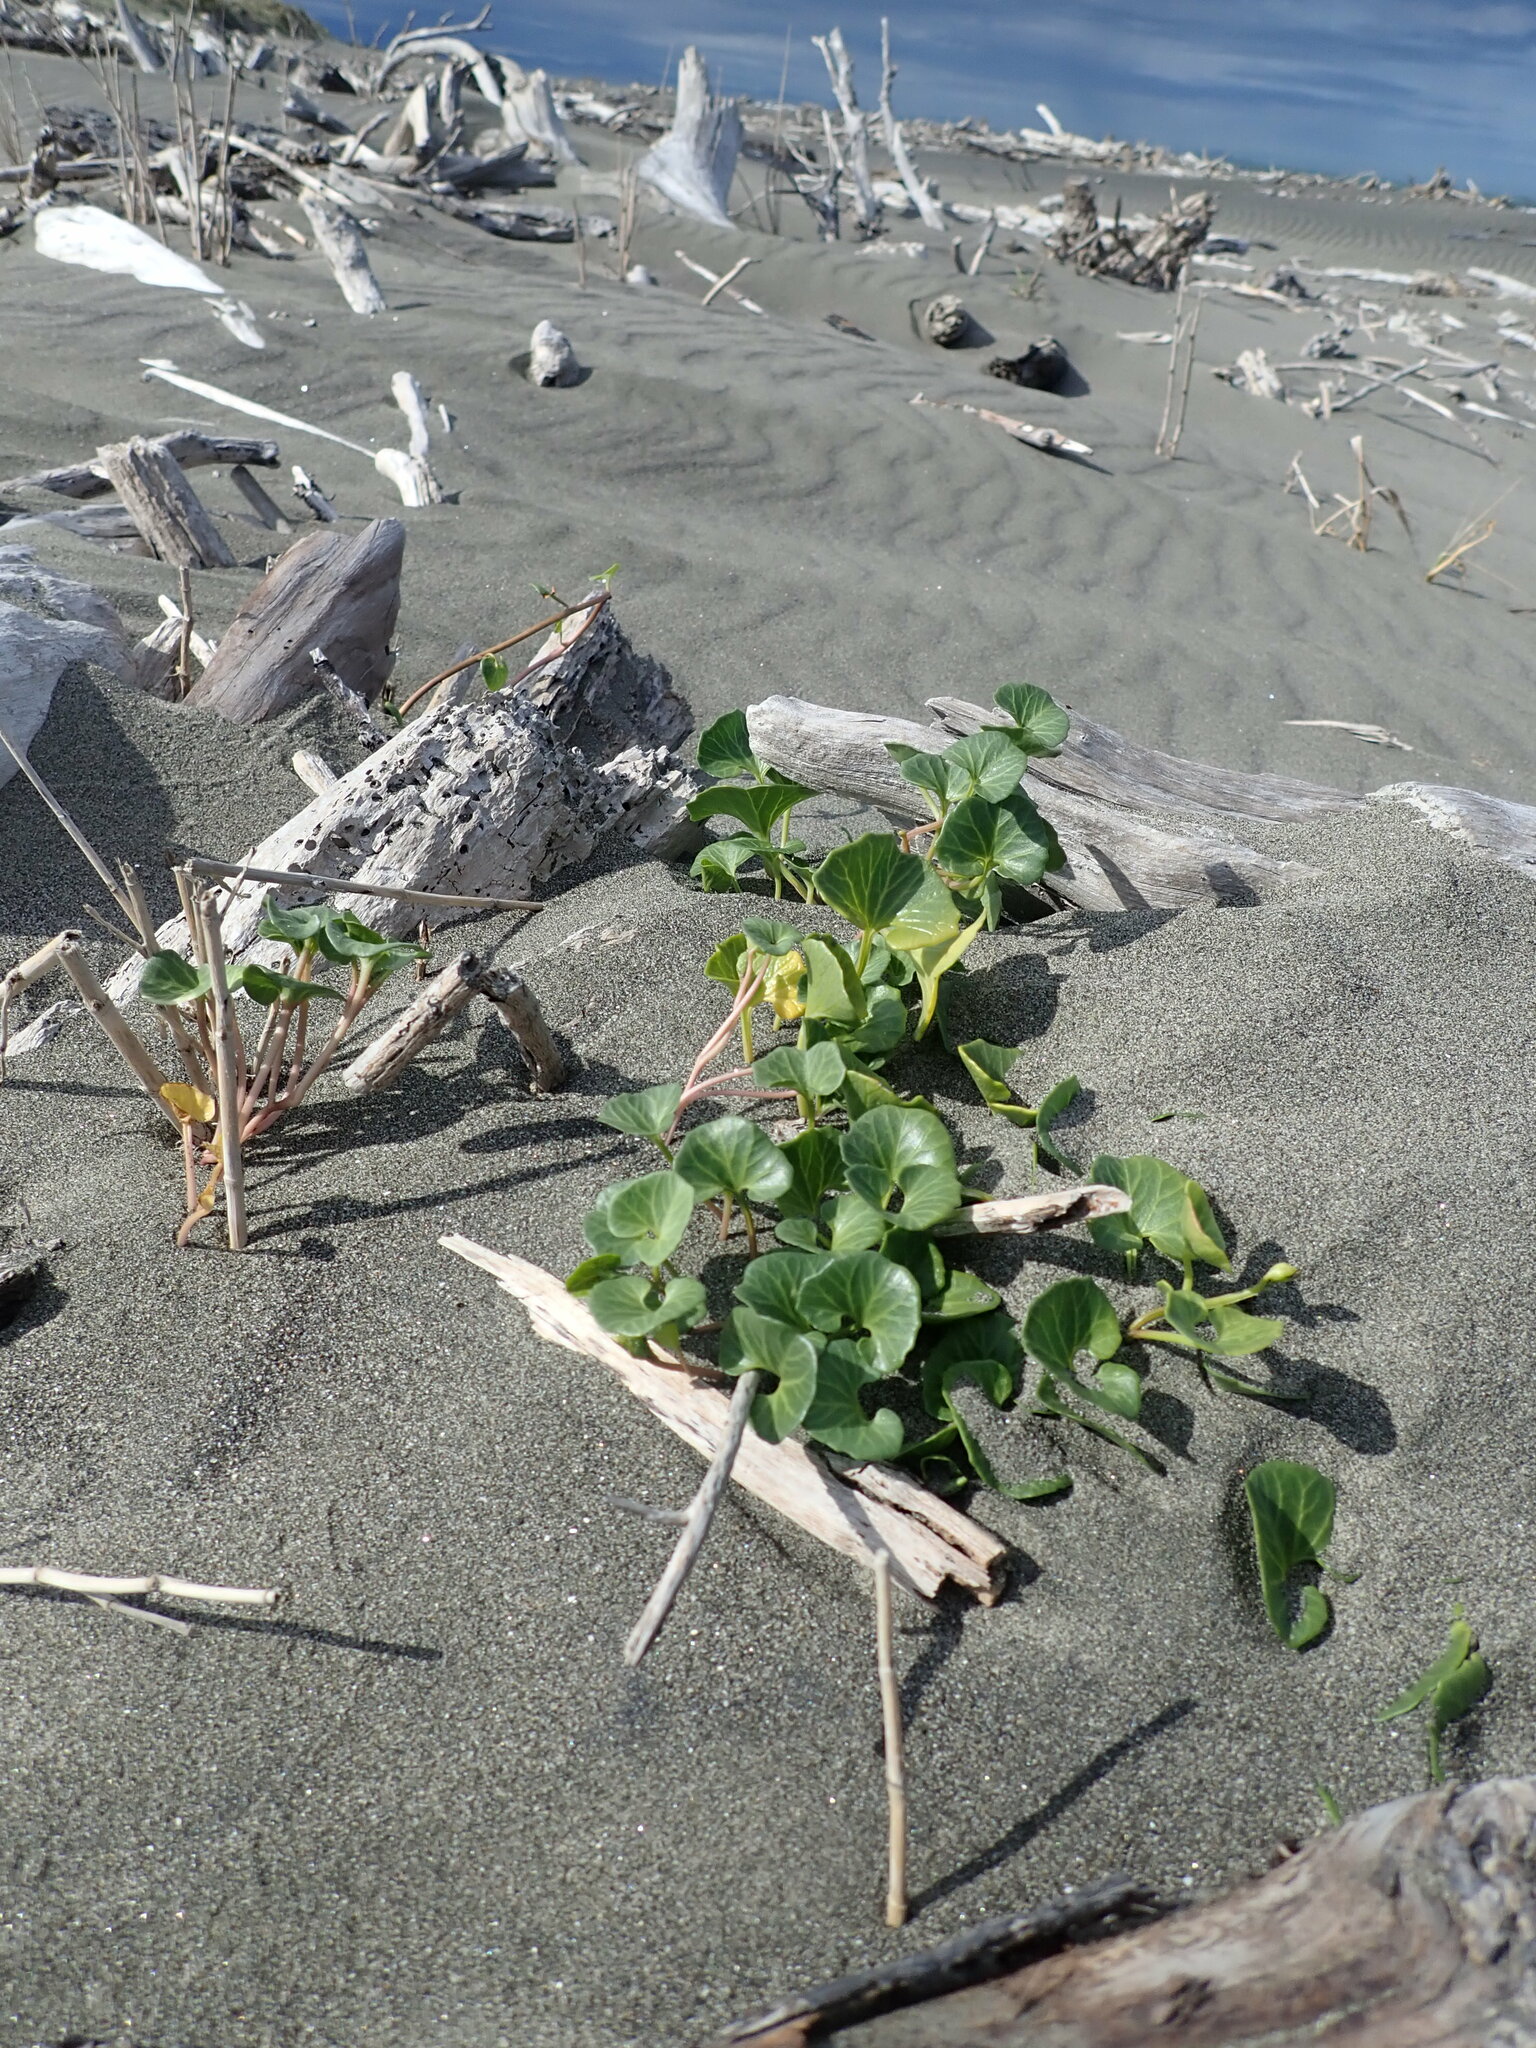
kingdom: Plantae
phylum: Tracheophyta
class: Magnoliopsida
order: Solanales
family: Convolvulaceae
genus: Calystegia
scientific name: Calystegia soldanella
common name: Sea bindweed
